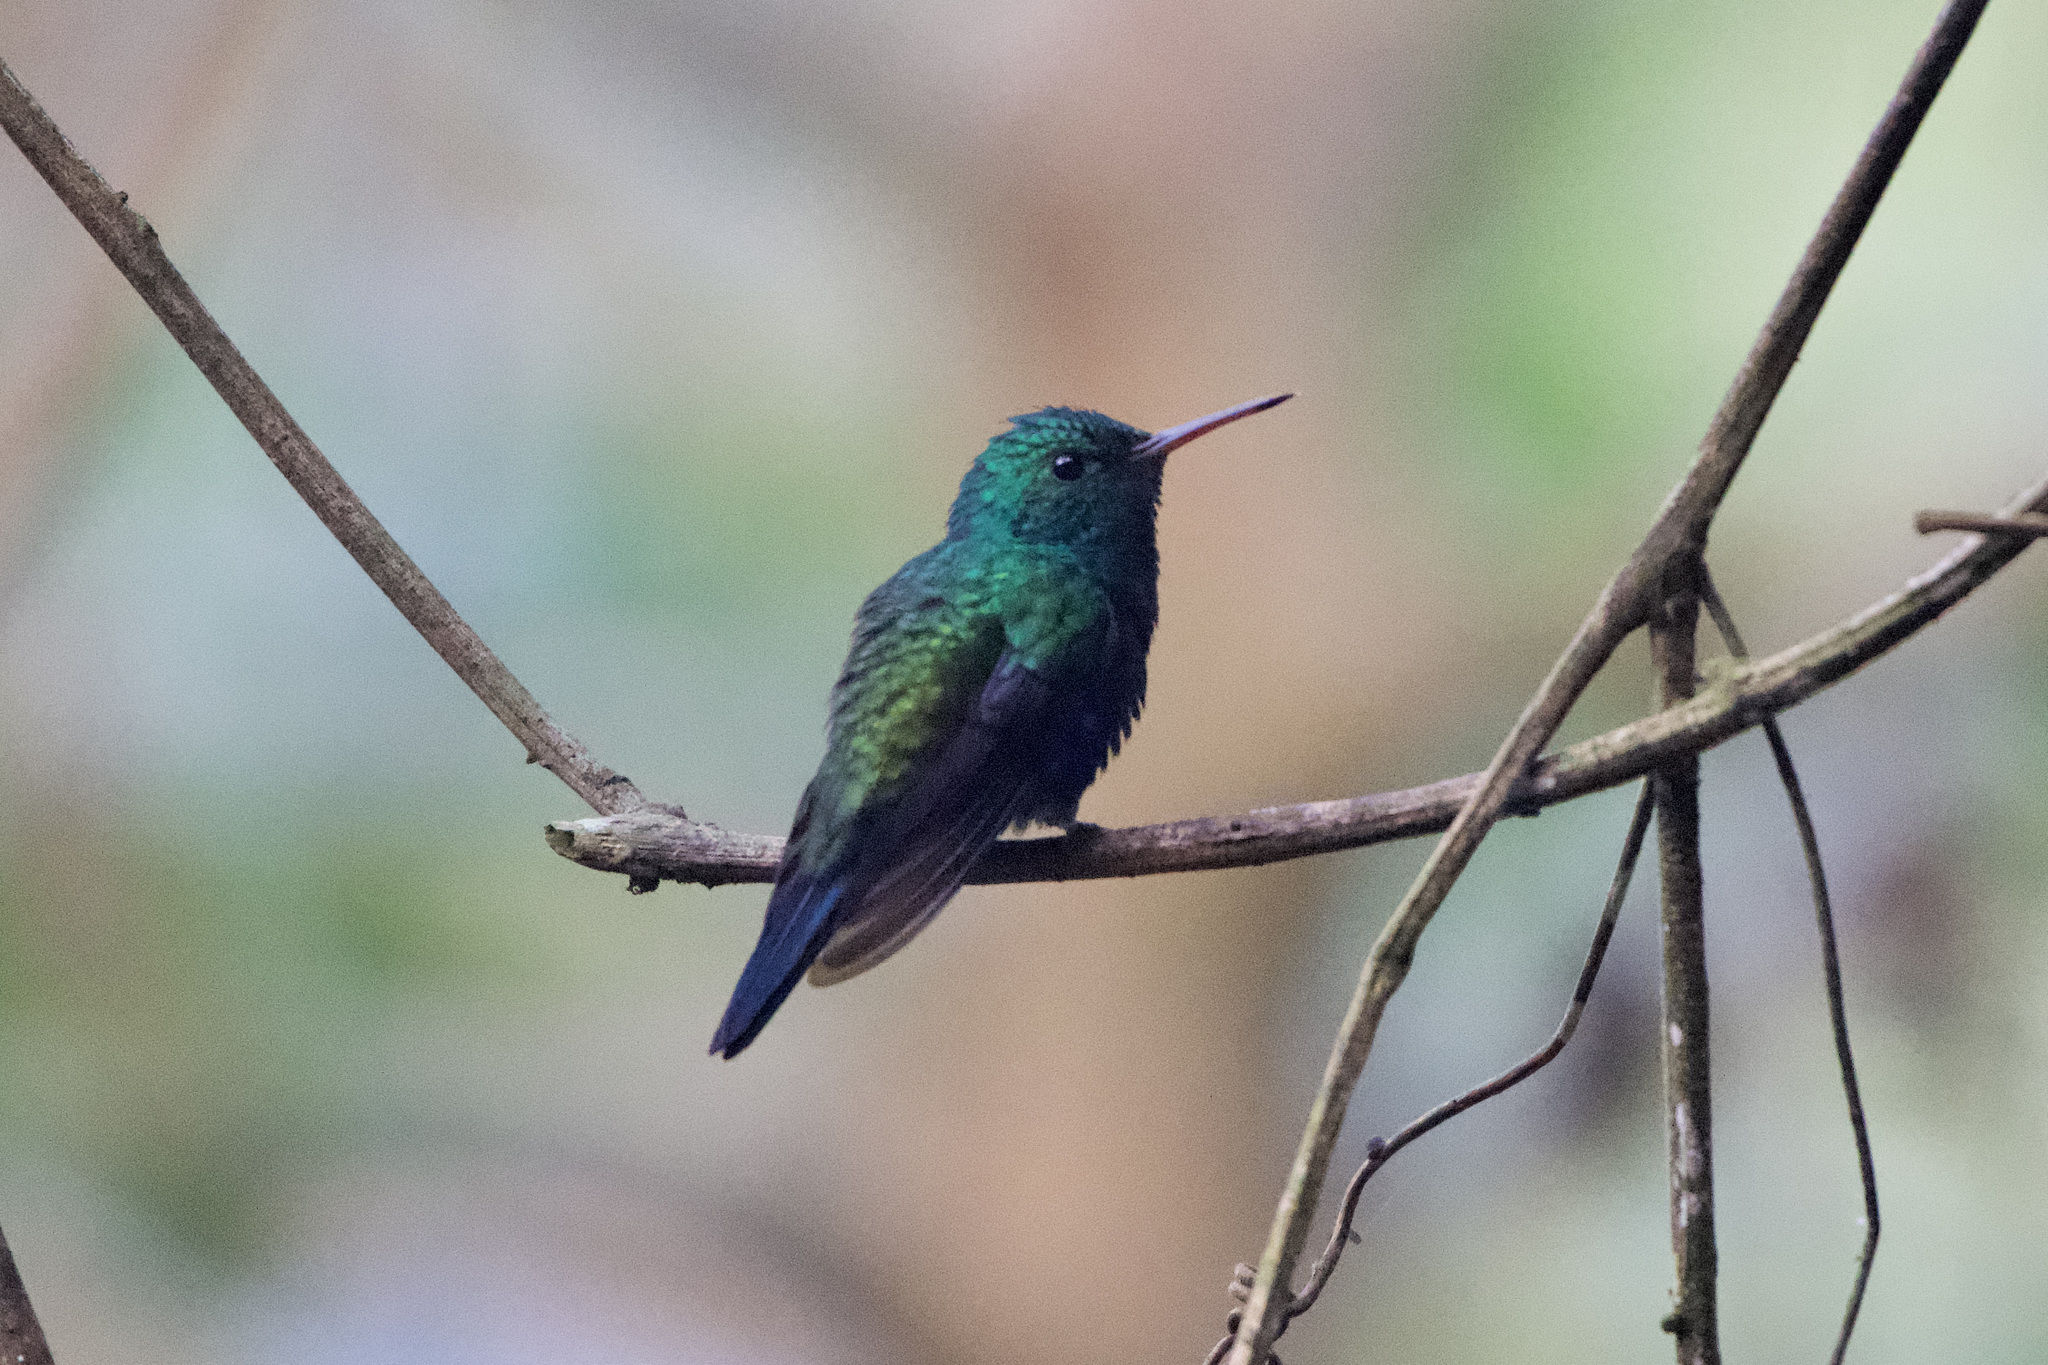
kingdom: Animalia
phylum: Chordata
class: Aves
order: Apodiformes
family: Trochilidae
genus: Chlorestes
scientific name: Chlorestes julie
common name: Violet-bellied hummingbird
